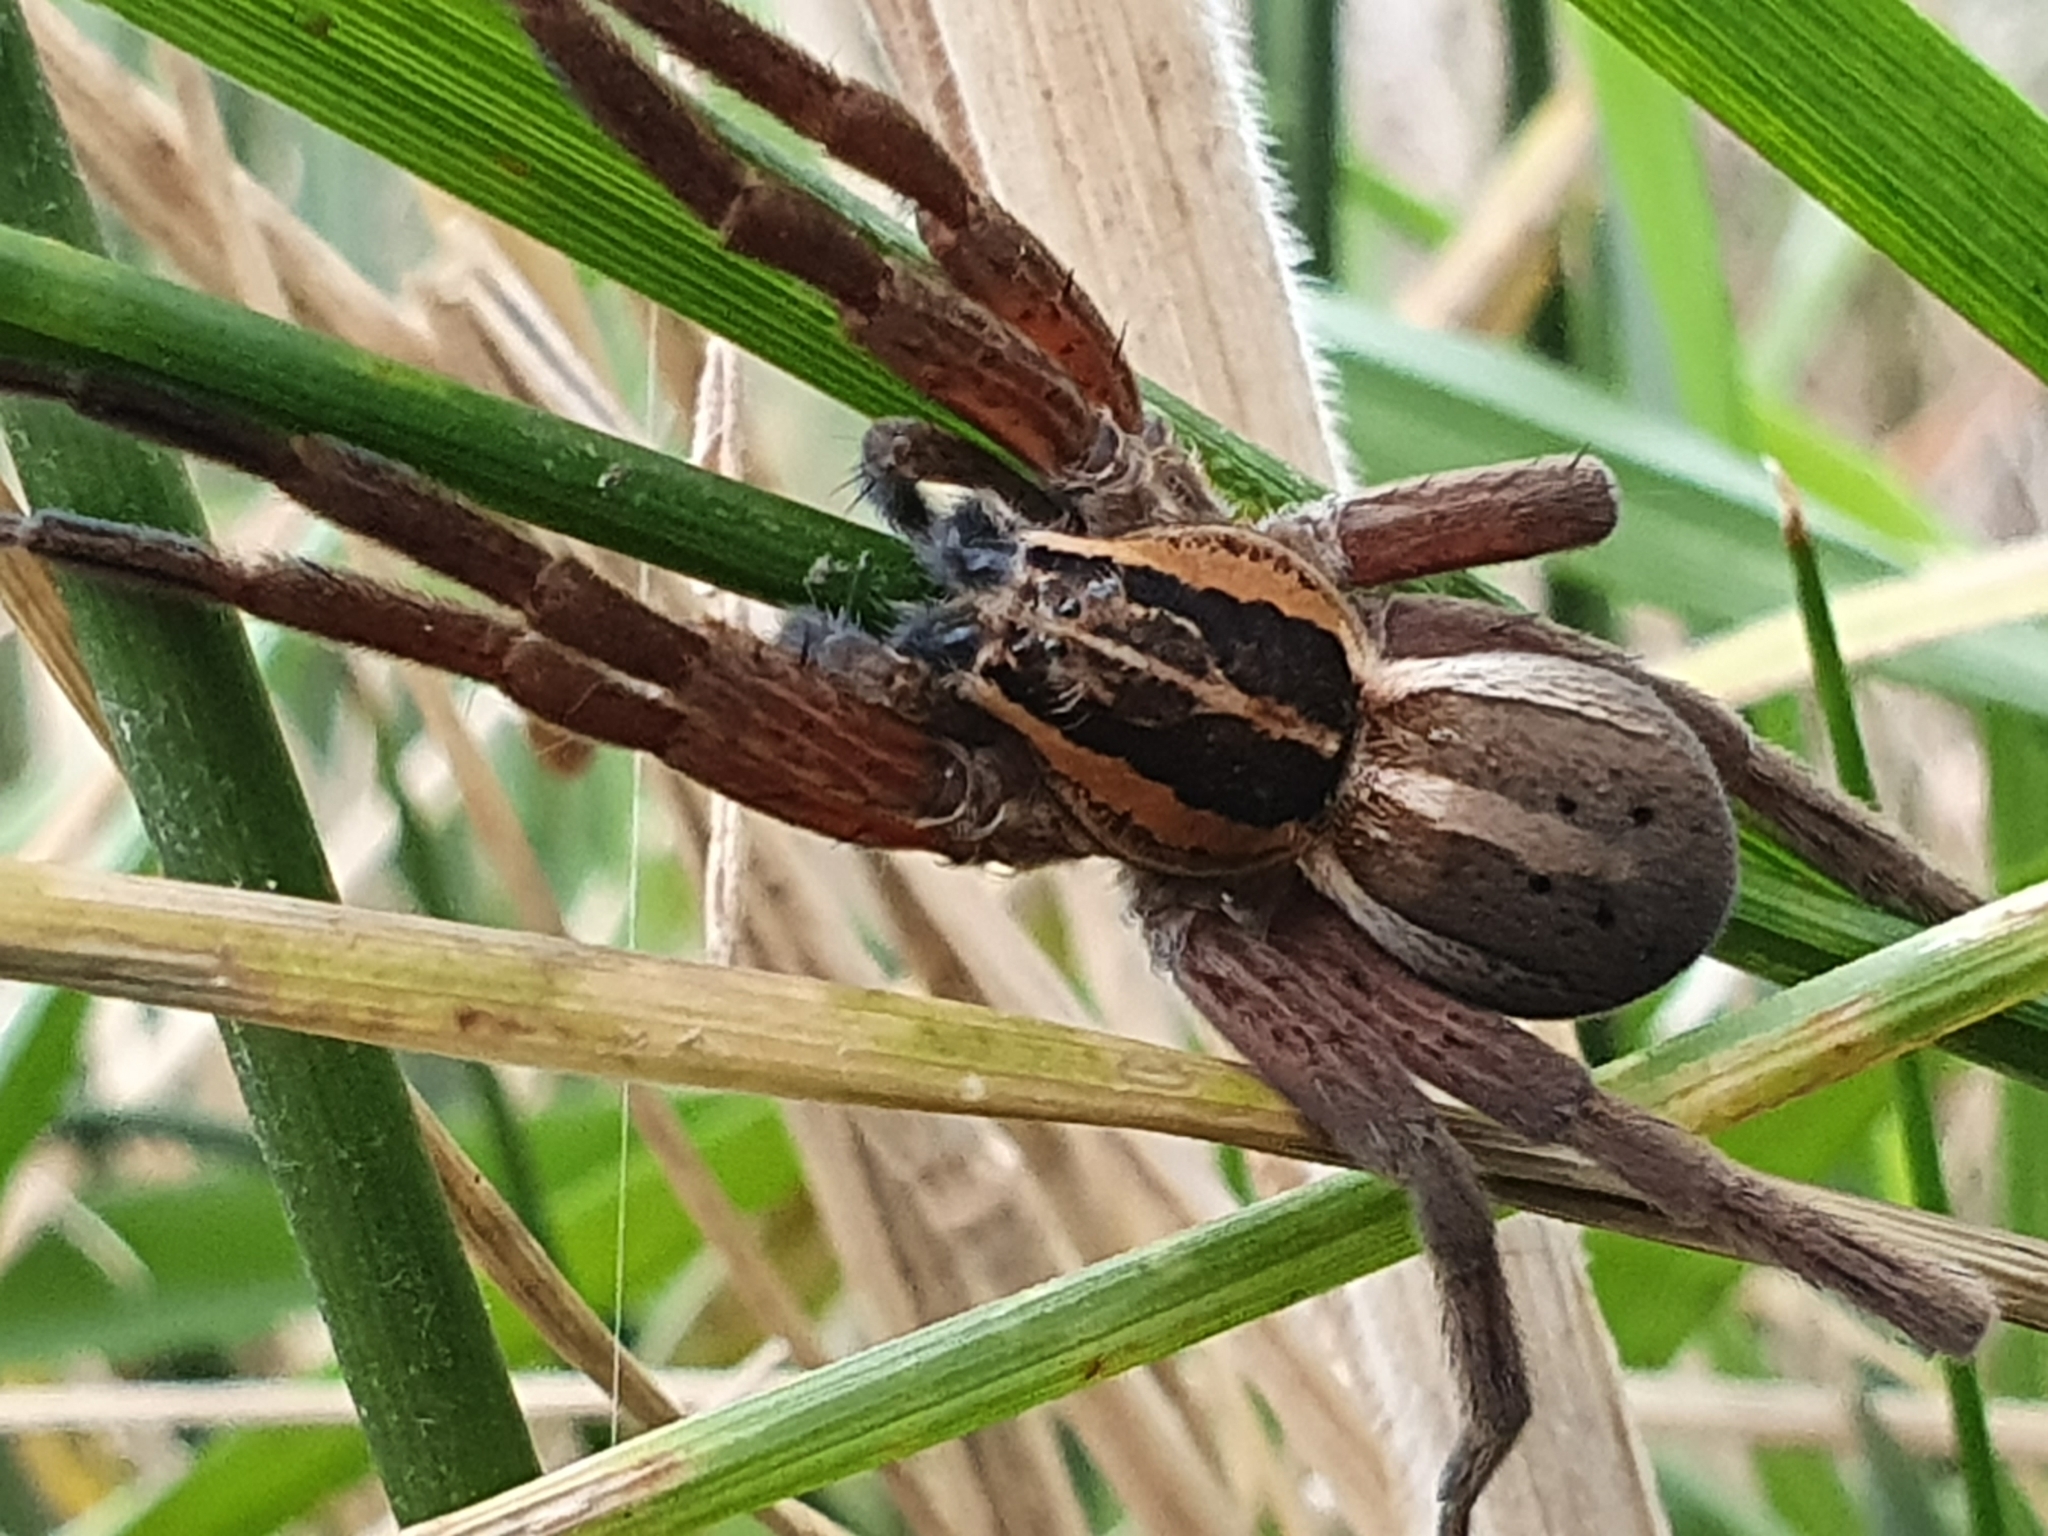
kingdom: Animalia
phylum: Arthropoda
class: Arachnida
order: Araneae
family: Pisauridae
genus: Dolomedes
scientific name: Dolomedes minor
